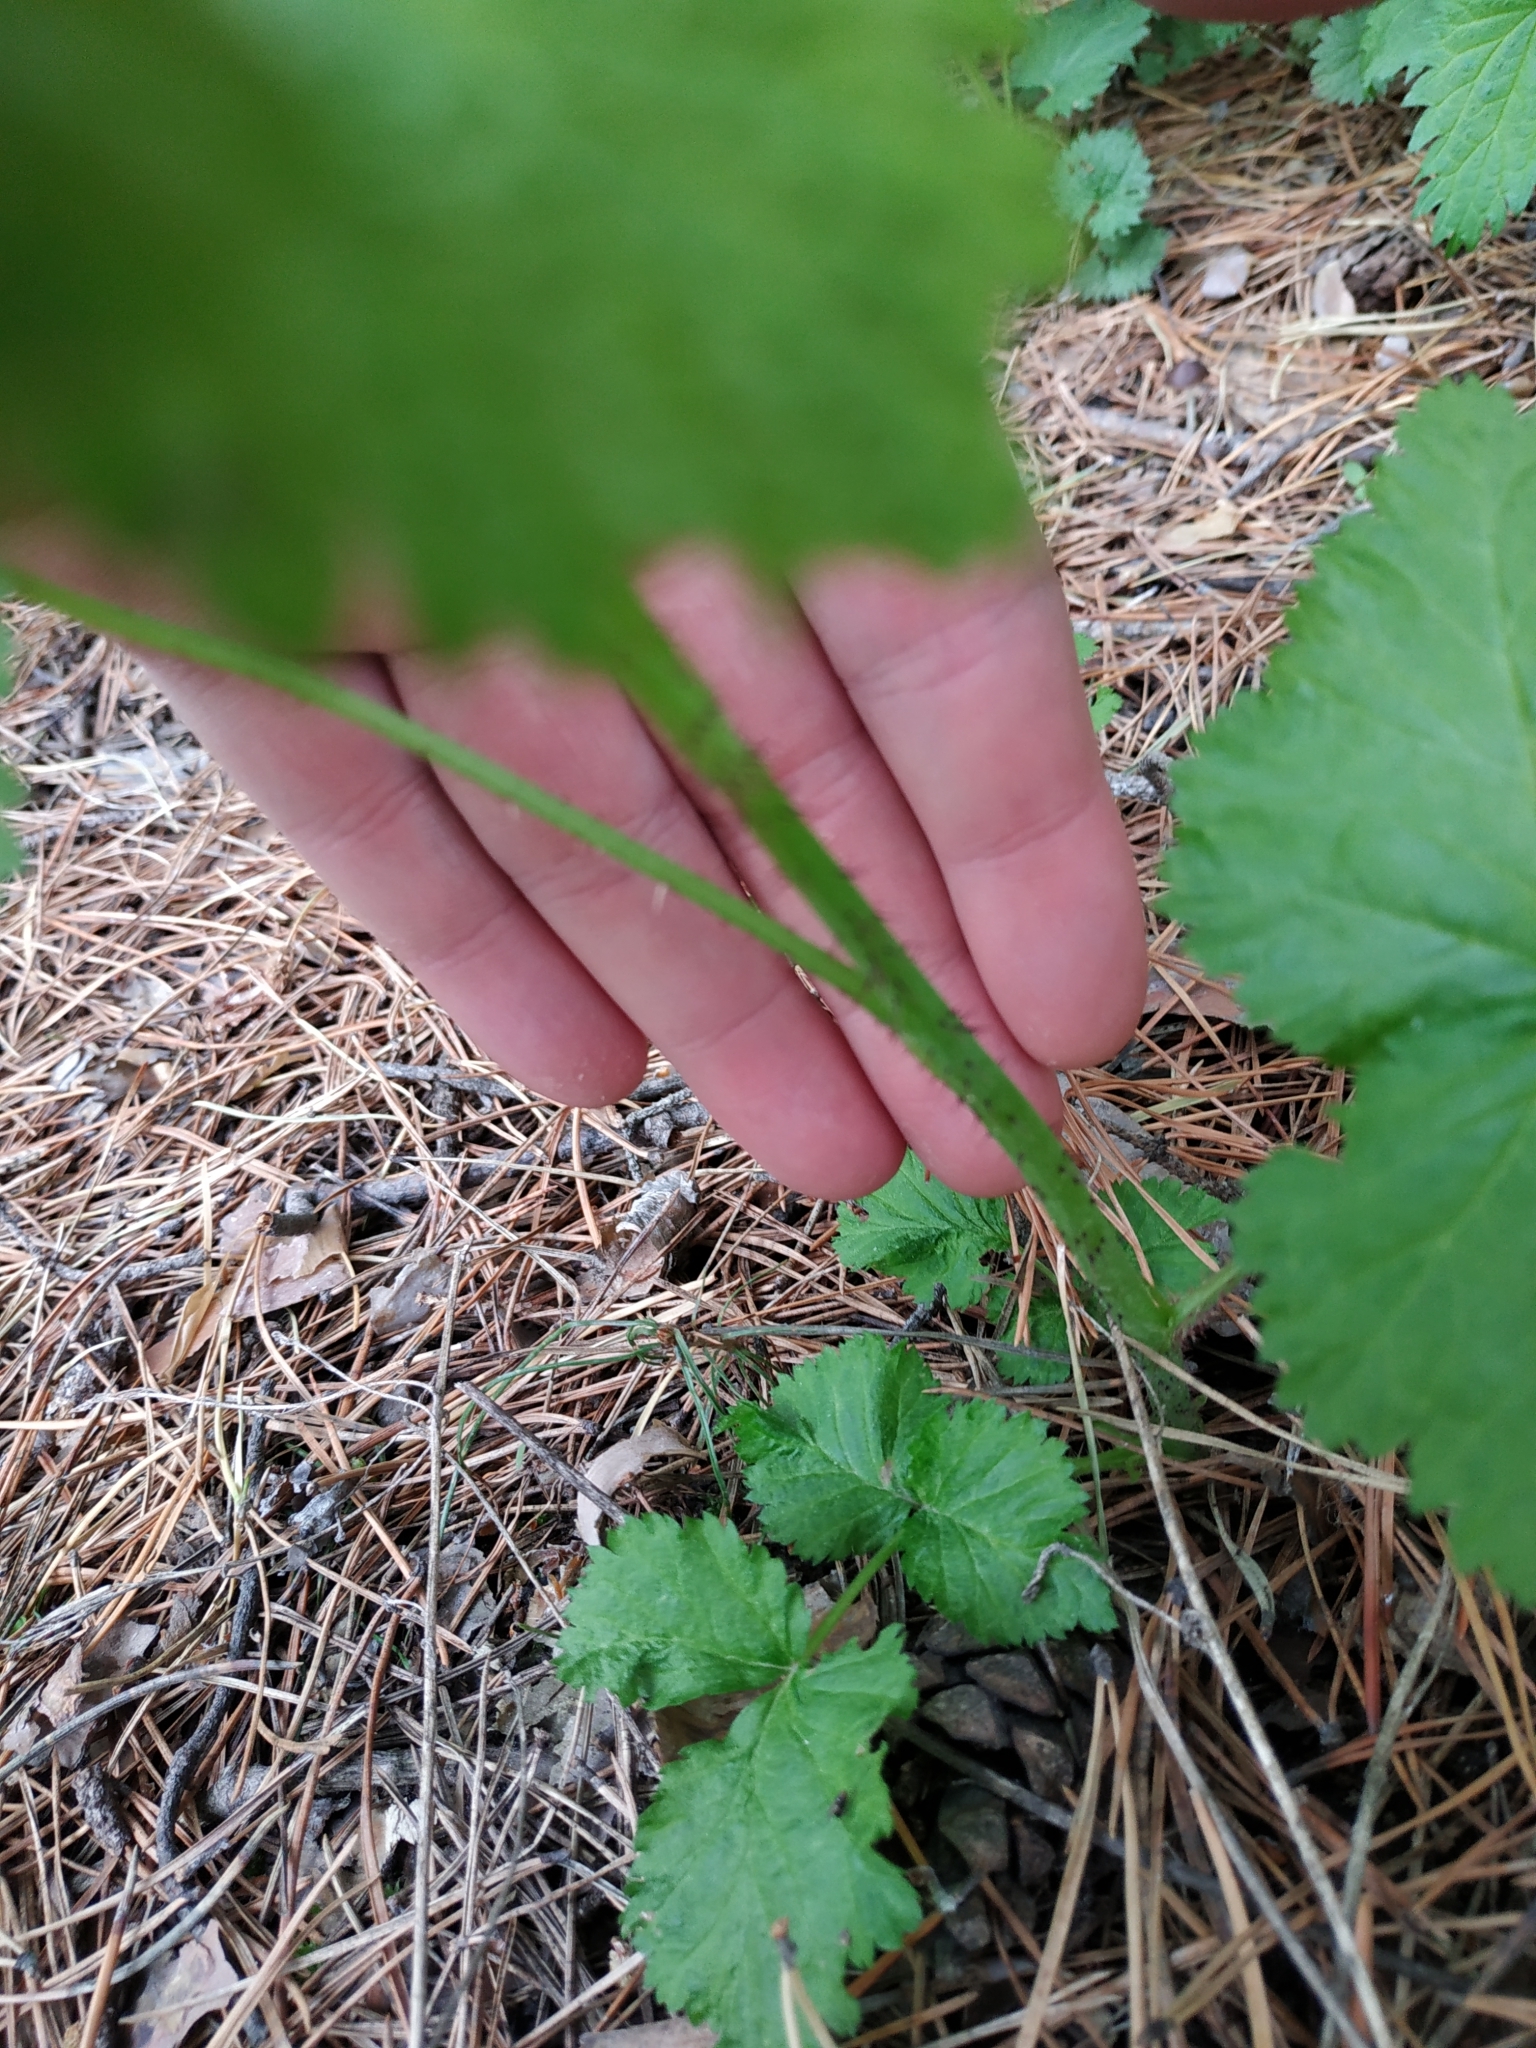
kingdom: Plantae
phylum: Tracheophyta
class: Magnoliopsida
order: Rosales
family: Rosaceae
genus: Rubus
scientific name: Rubus idaeus
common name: Raspberry
